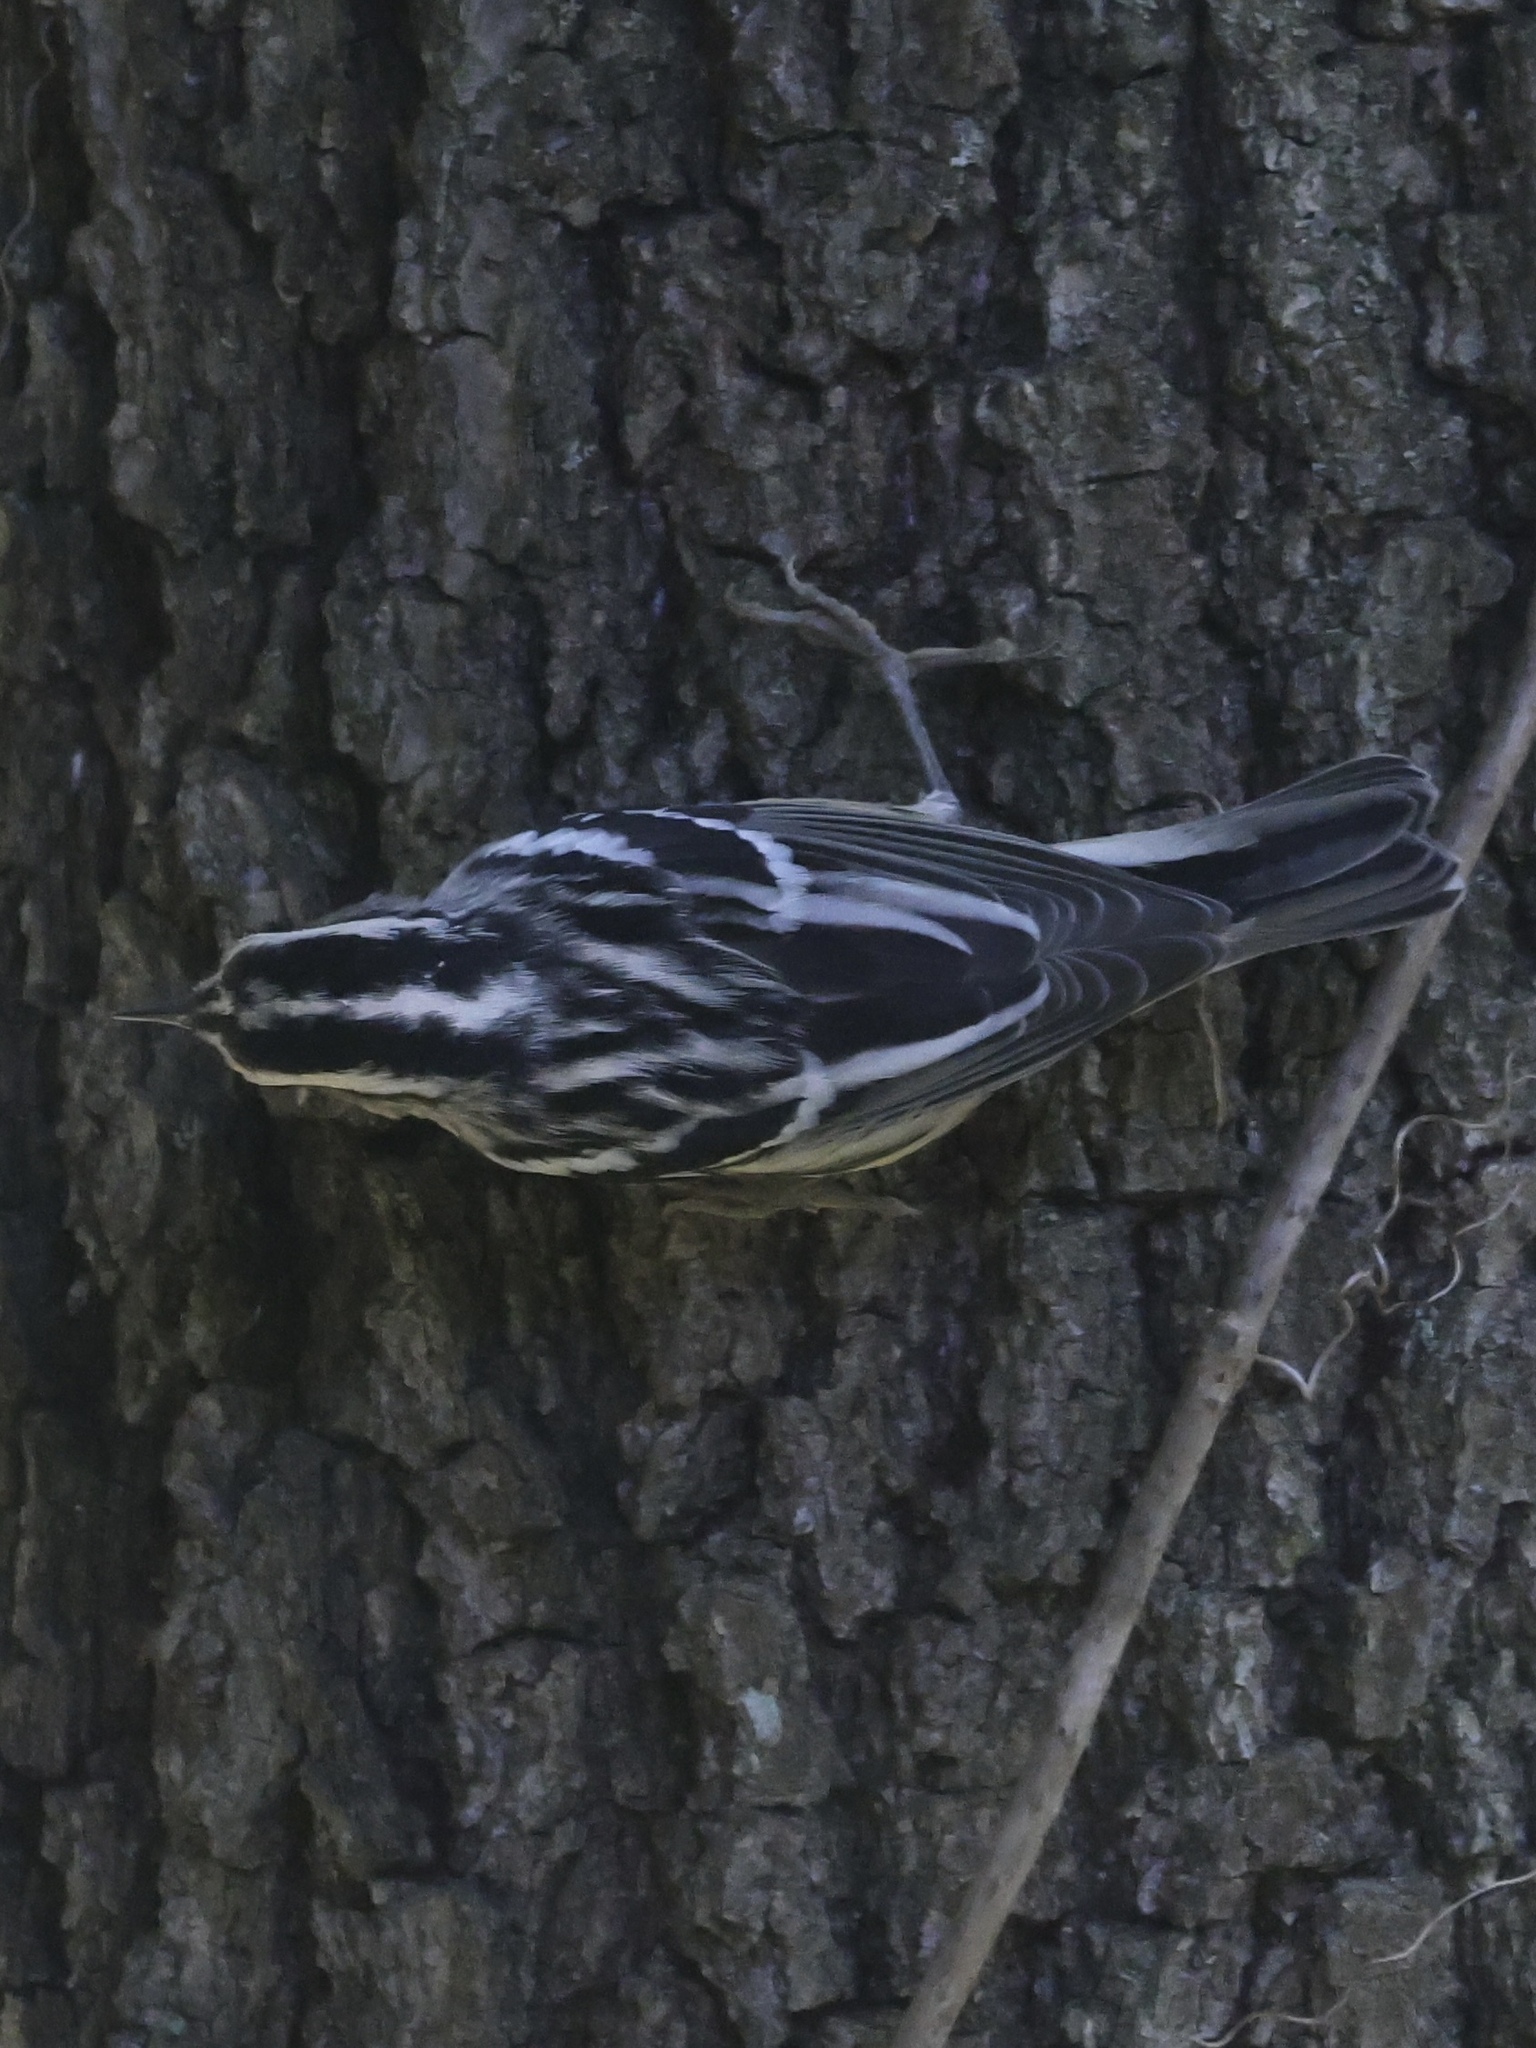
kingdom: Animalia
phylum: Chordata
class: Aves
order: Passeriformes
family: Parulidae
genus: Mniotilta
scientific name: Mniotilta varia
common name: Black-and-white warbler
